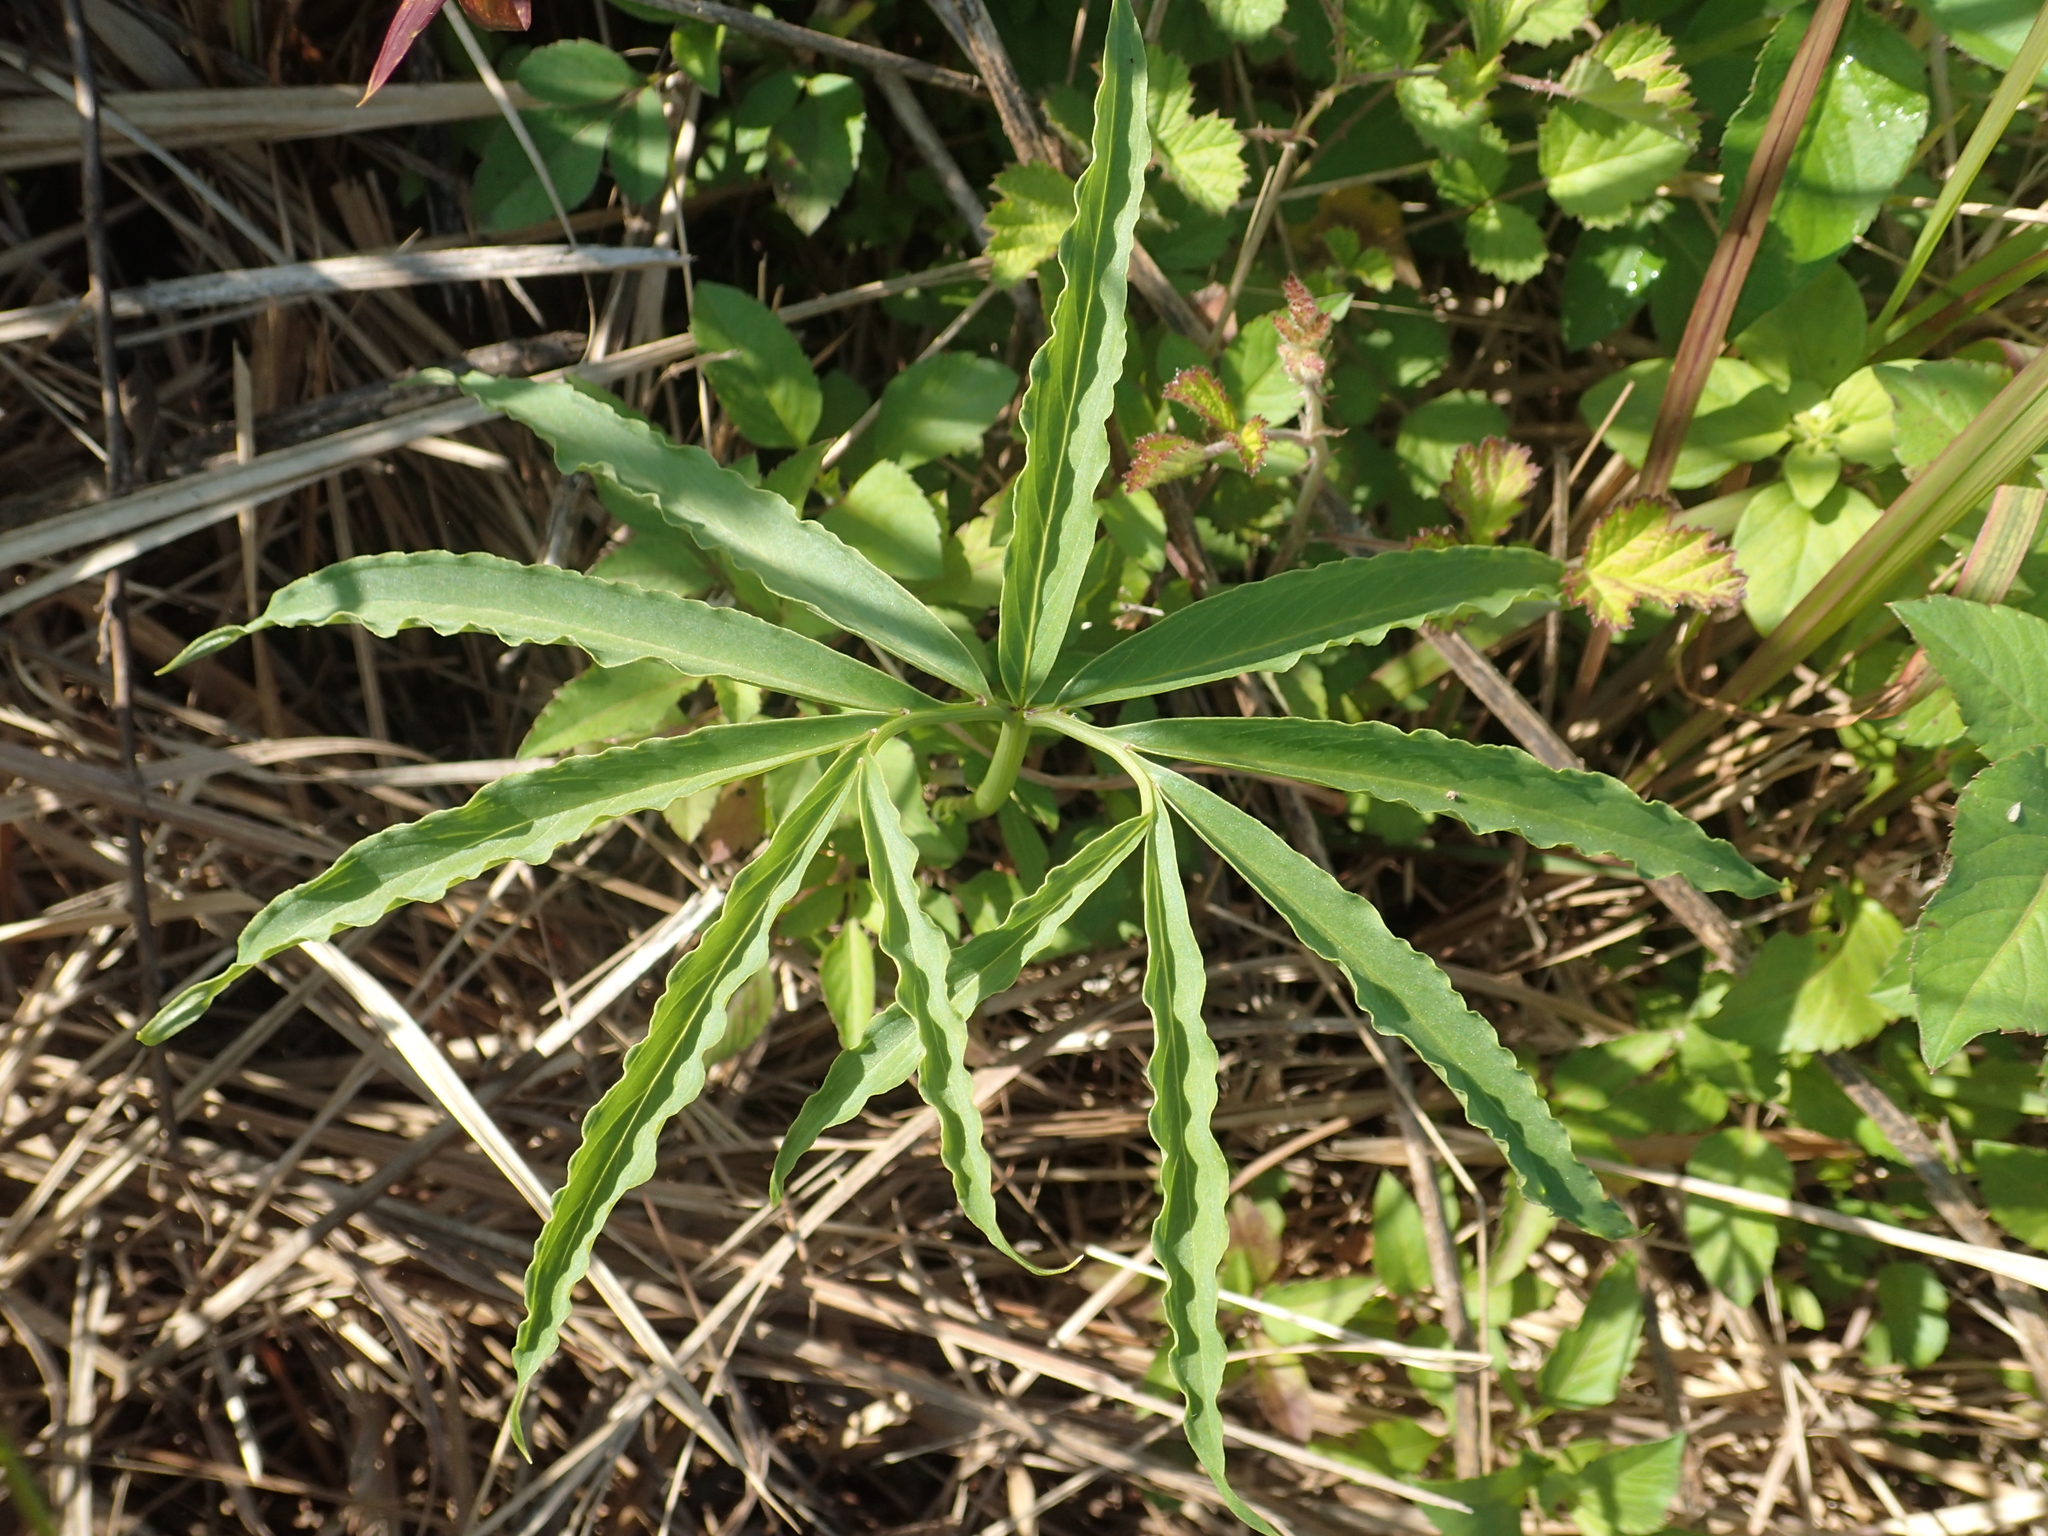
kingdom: Plantae
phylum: Tracheophyta
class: Liliopsida
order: Alismatales
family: Araceae
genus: Arisaema
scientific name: Arisaema heterophyllum
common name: Dancing crane cobra lily
